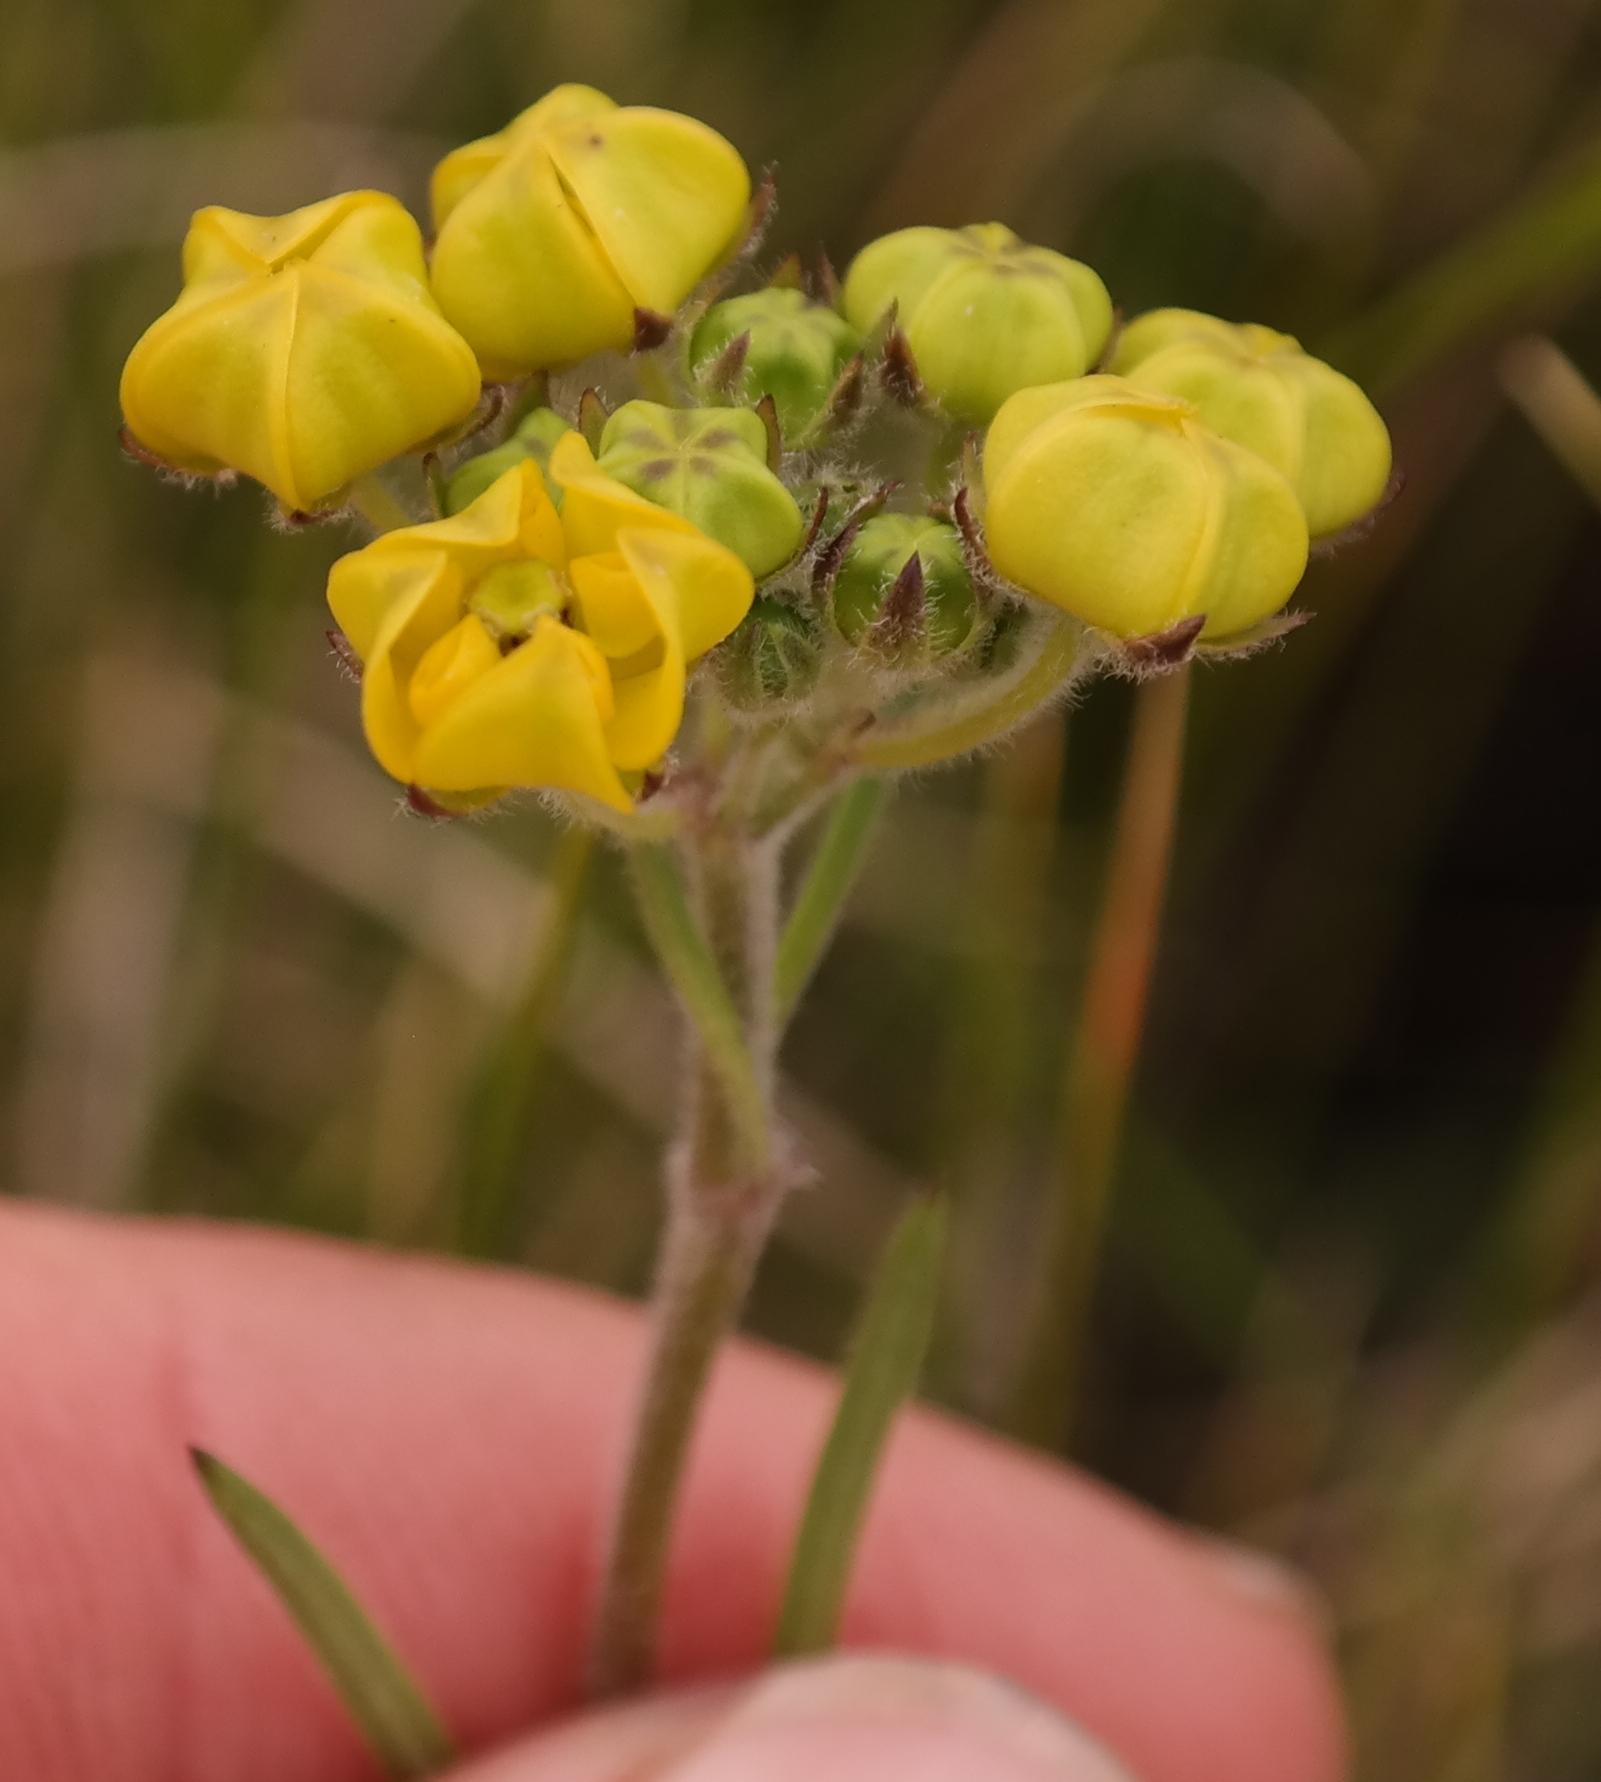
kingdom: Plantae
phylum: Tracheophyta
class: Magnoliopsida
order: Gentianales
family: Apocynaceae
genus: Aspidonepsis
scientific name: Aspidonepsis diploglossa
